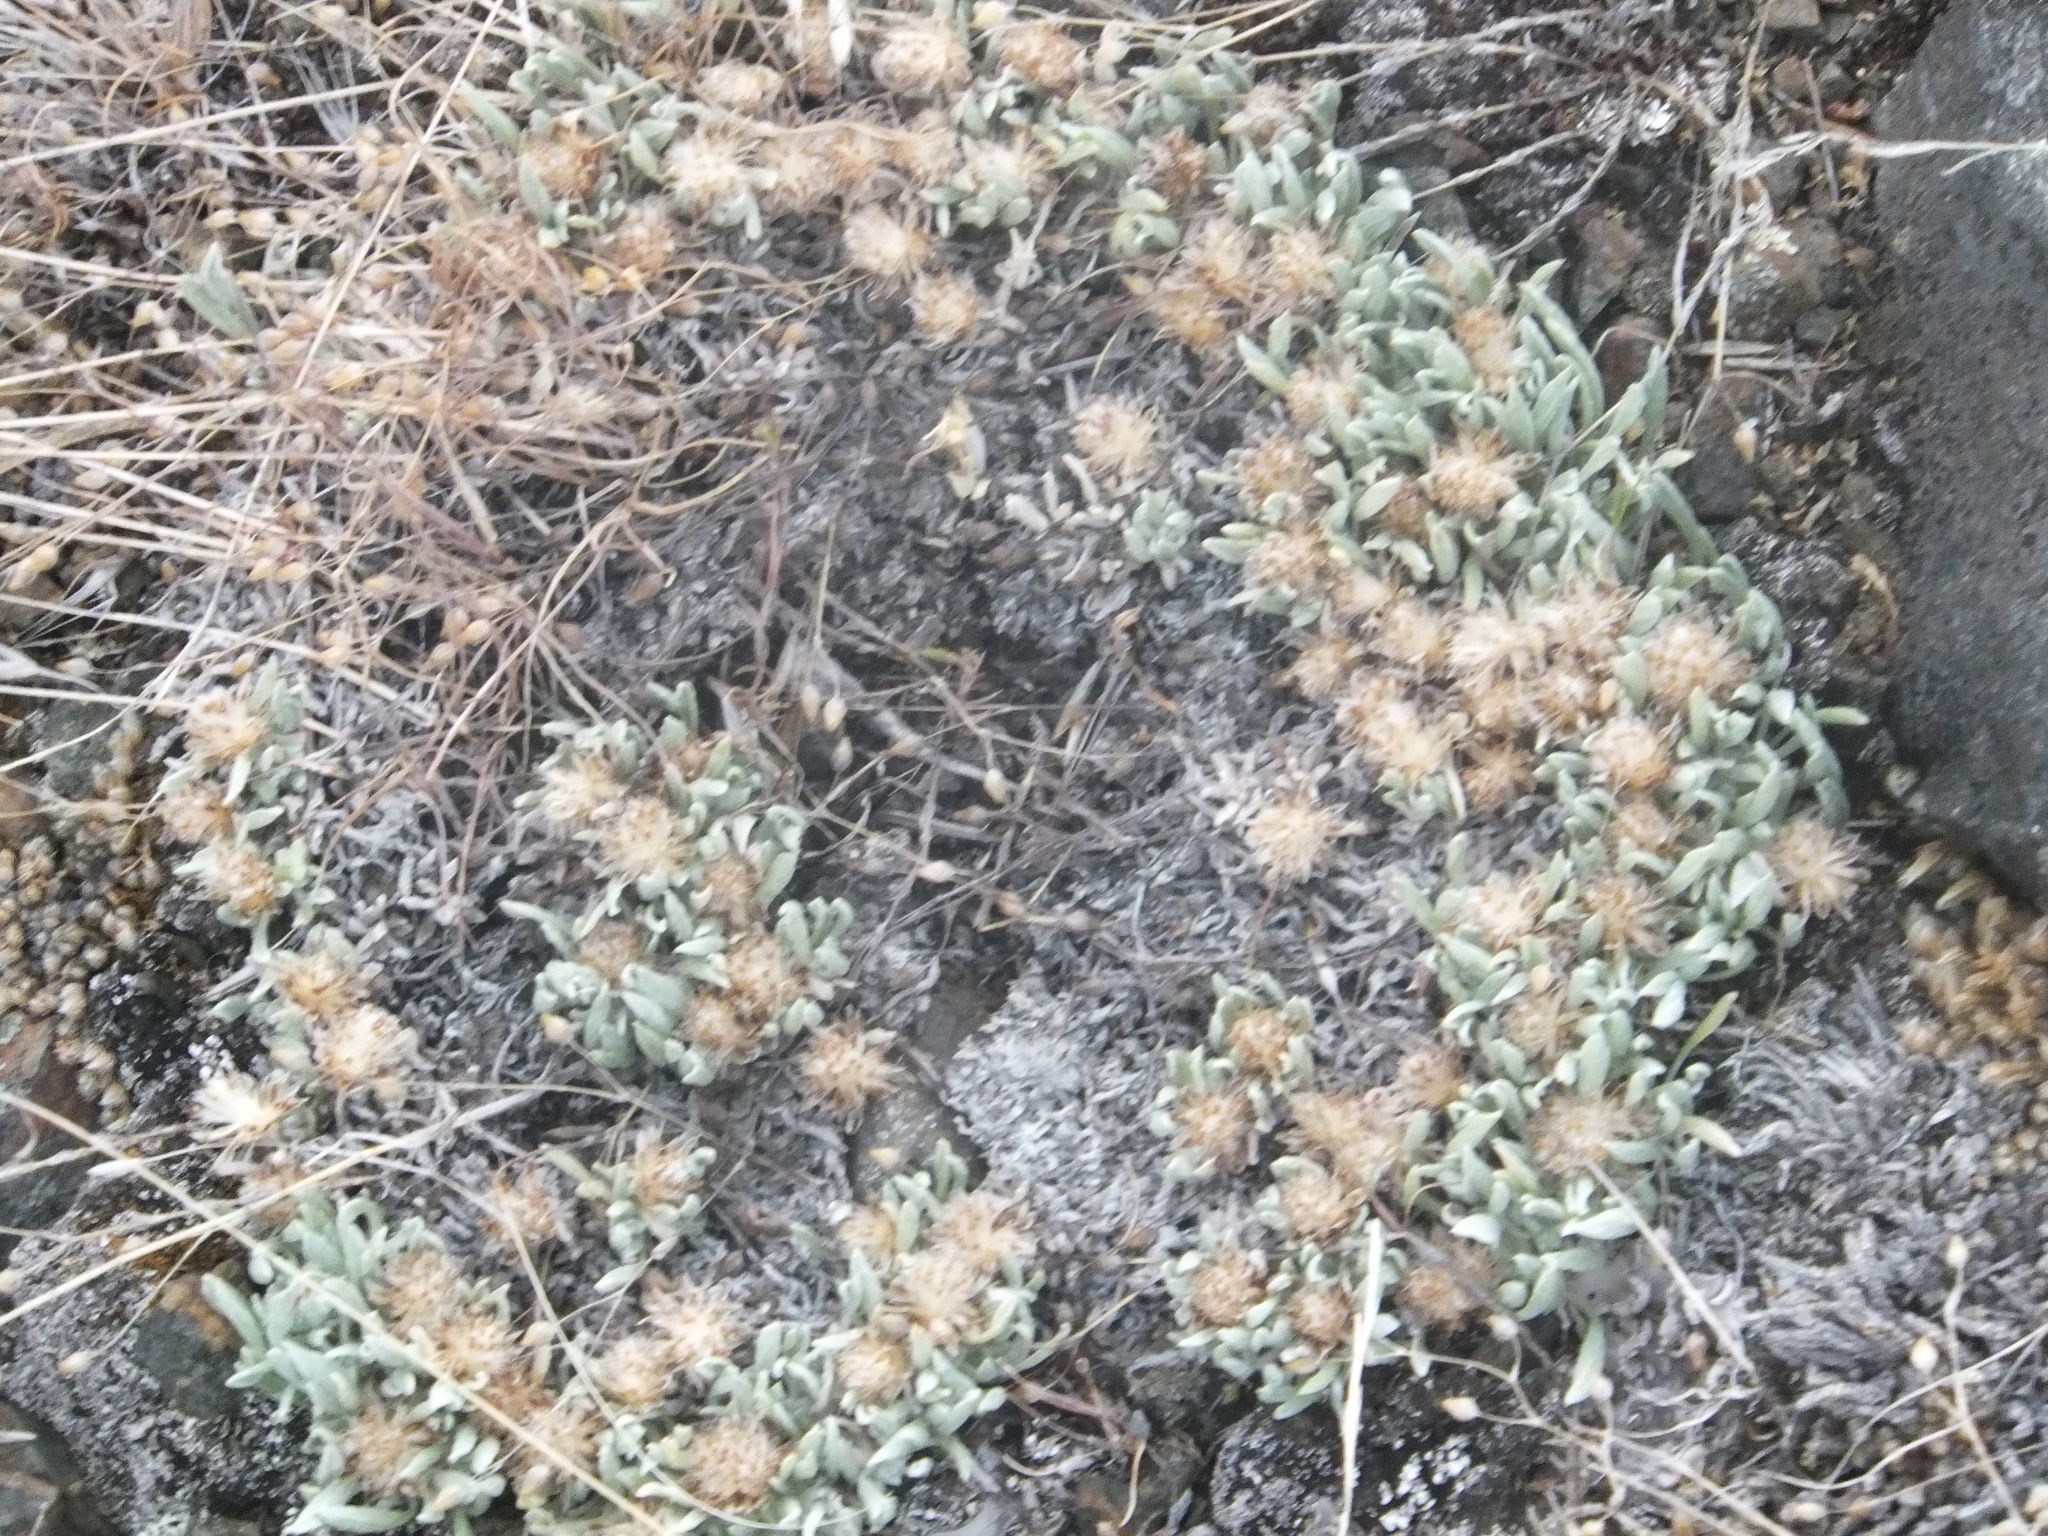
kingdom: Plantae
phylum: Tracheophyta
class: Magnoliopsida
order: Asterales
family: Asteraceae
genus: Antennaria
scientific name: Antennaria dimorpha
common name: Cushion pussytoes
